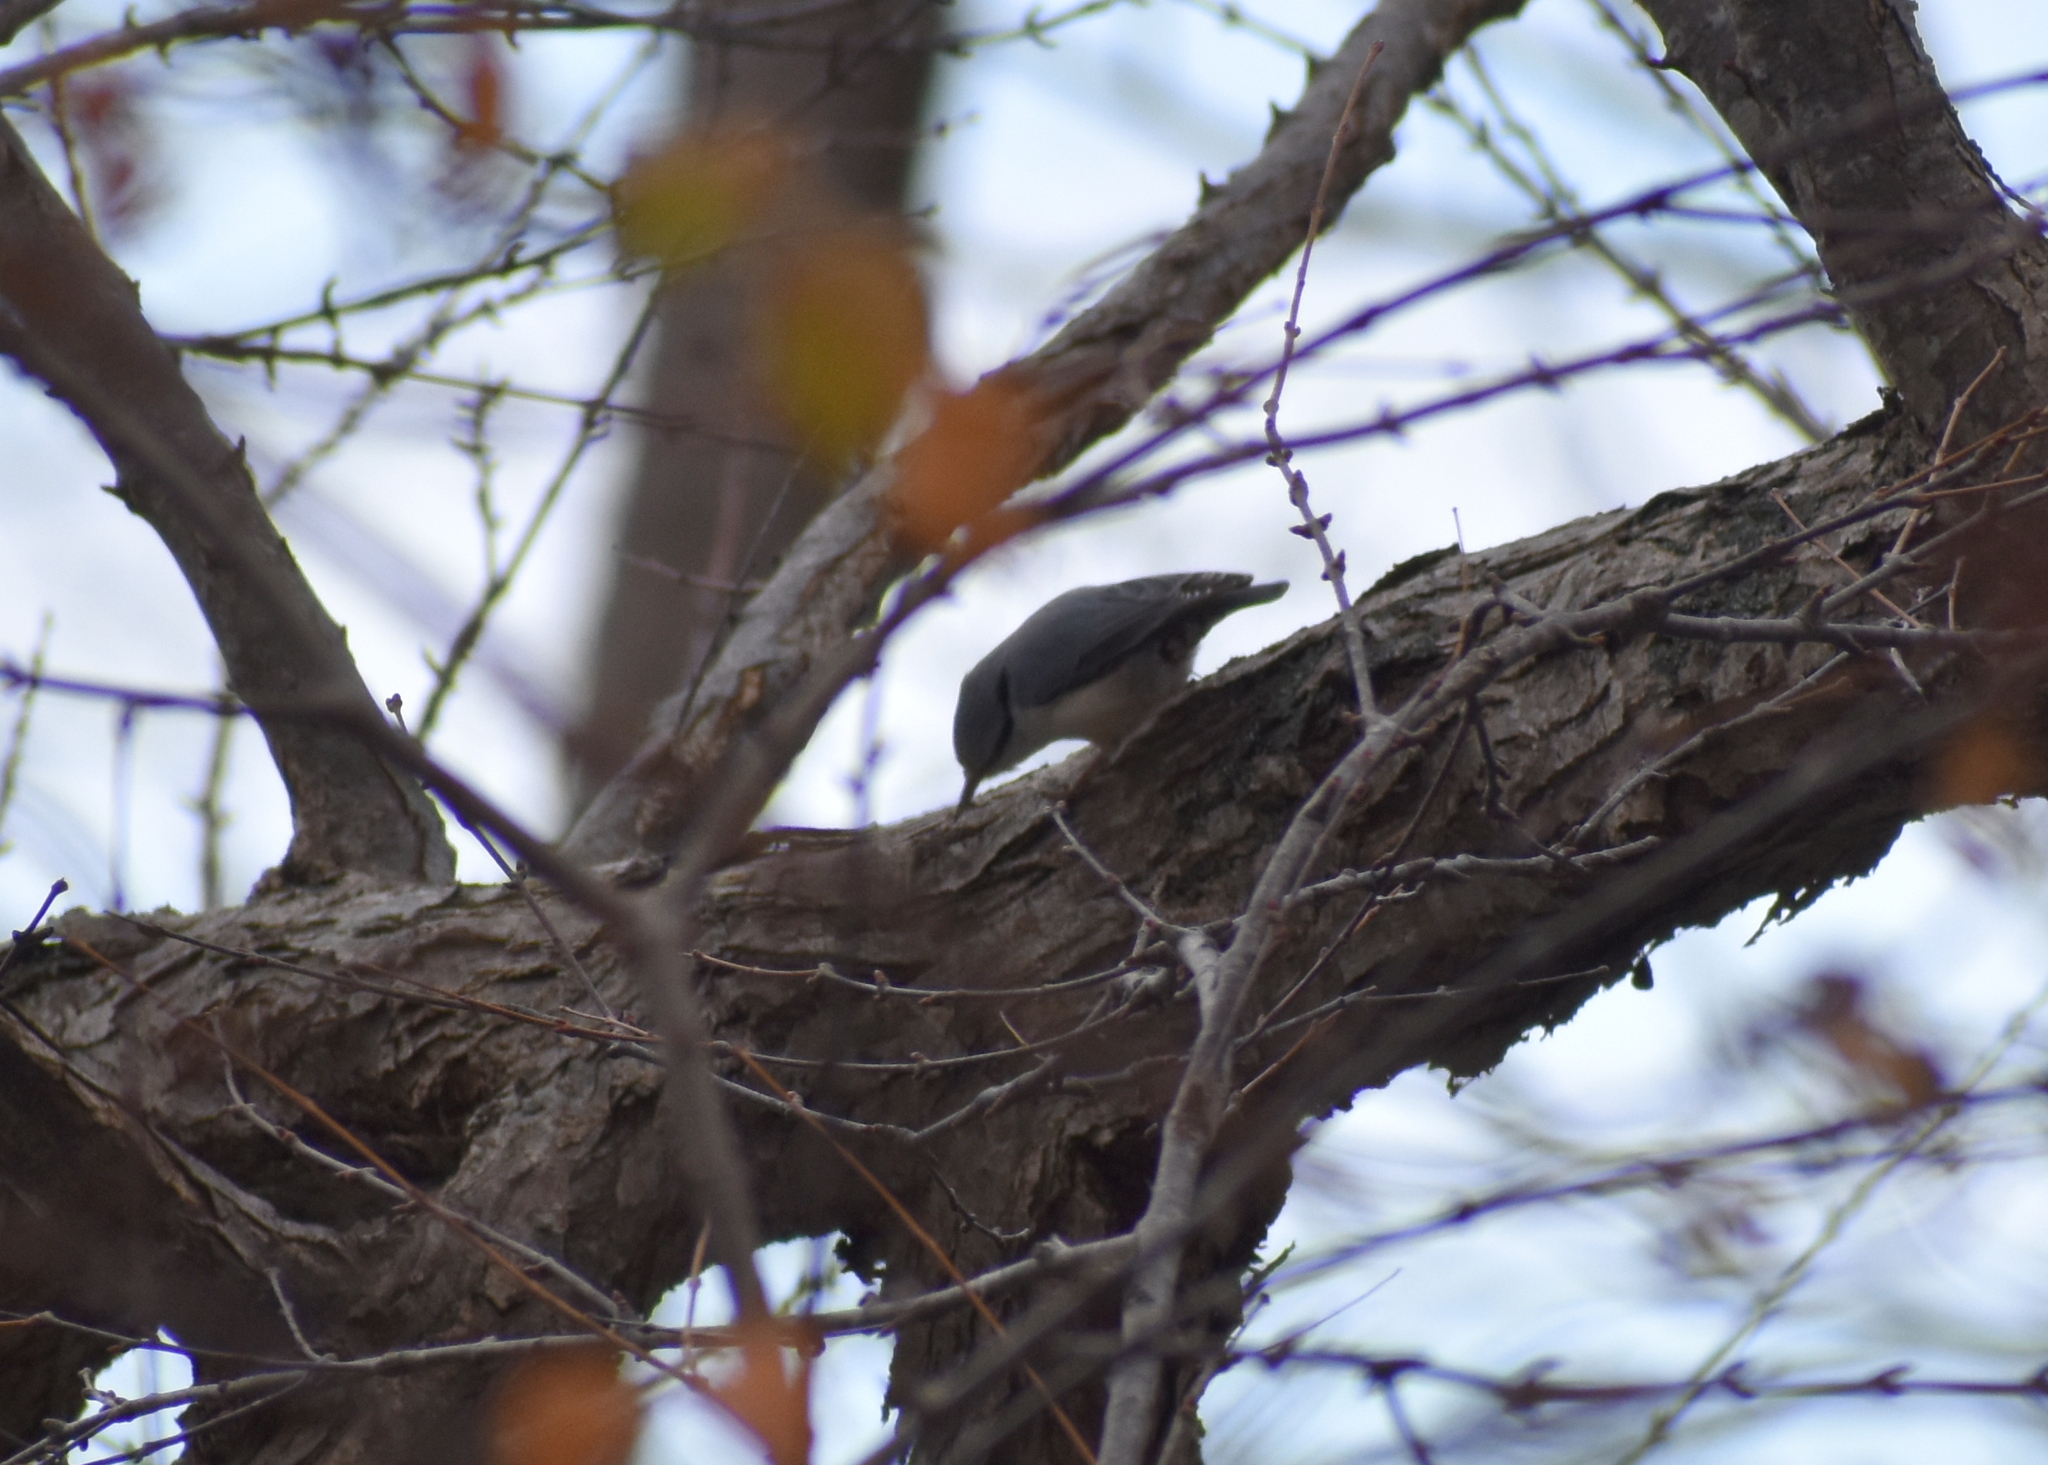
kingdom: Animalia
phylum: Chordata
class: Aves
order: Passeriformes
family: Sittidae
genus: Sitta
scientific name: Sitta europaea
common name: Eurasian nuthatch
